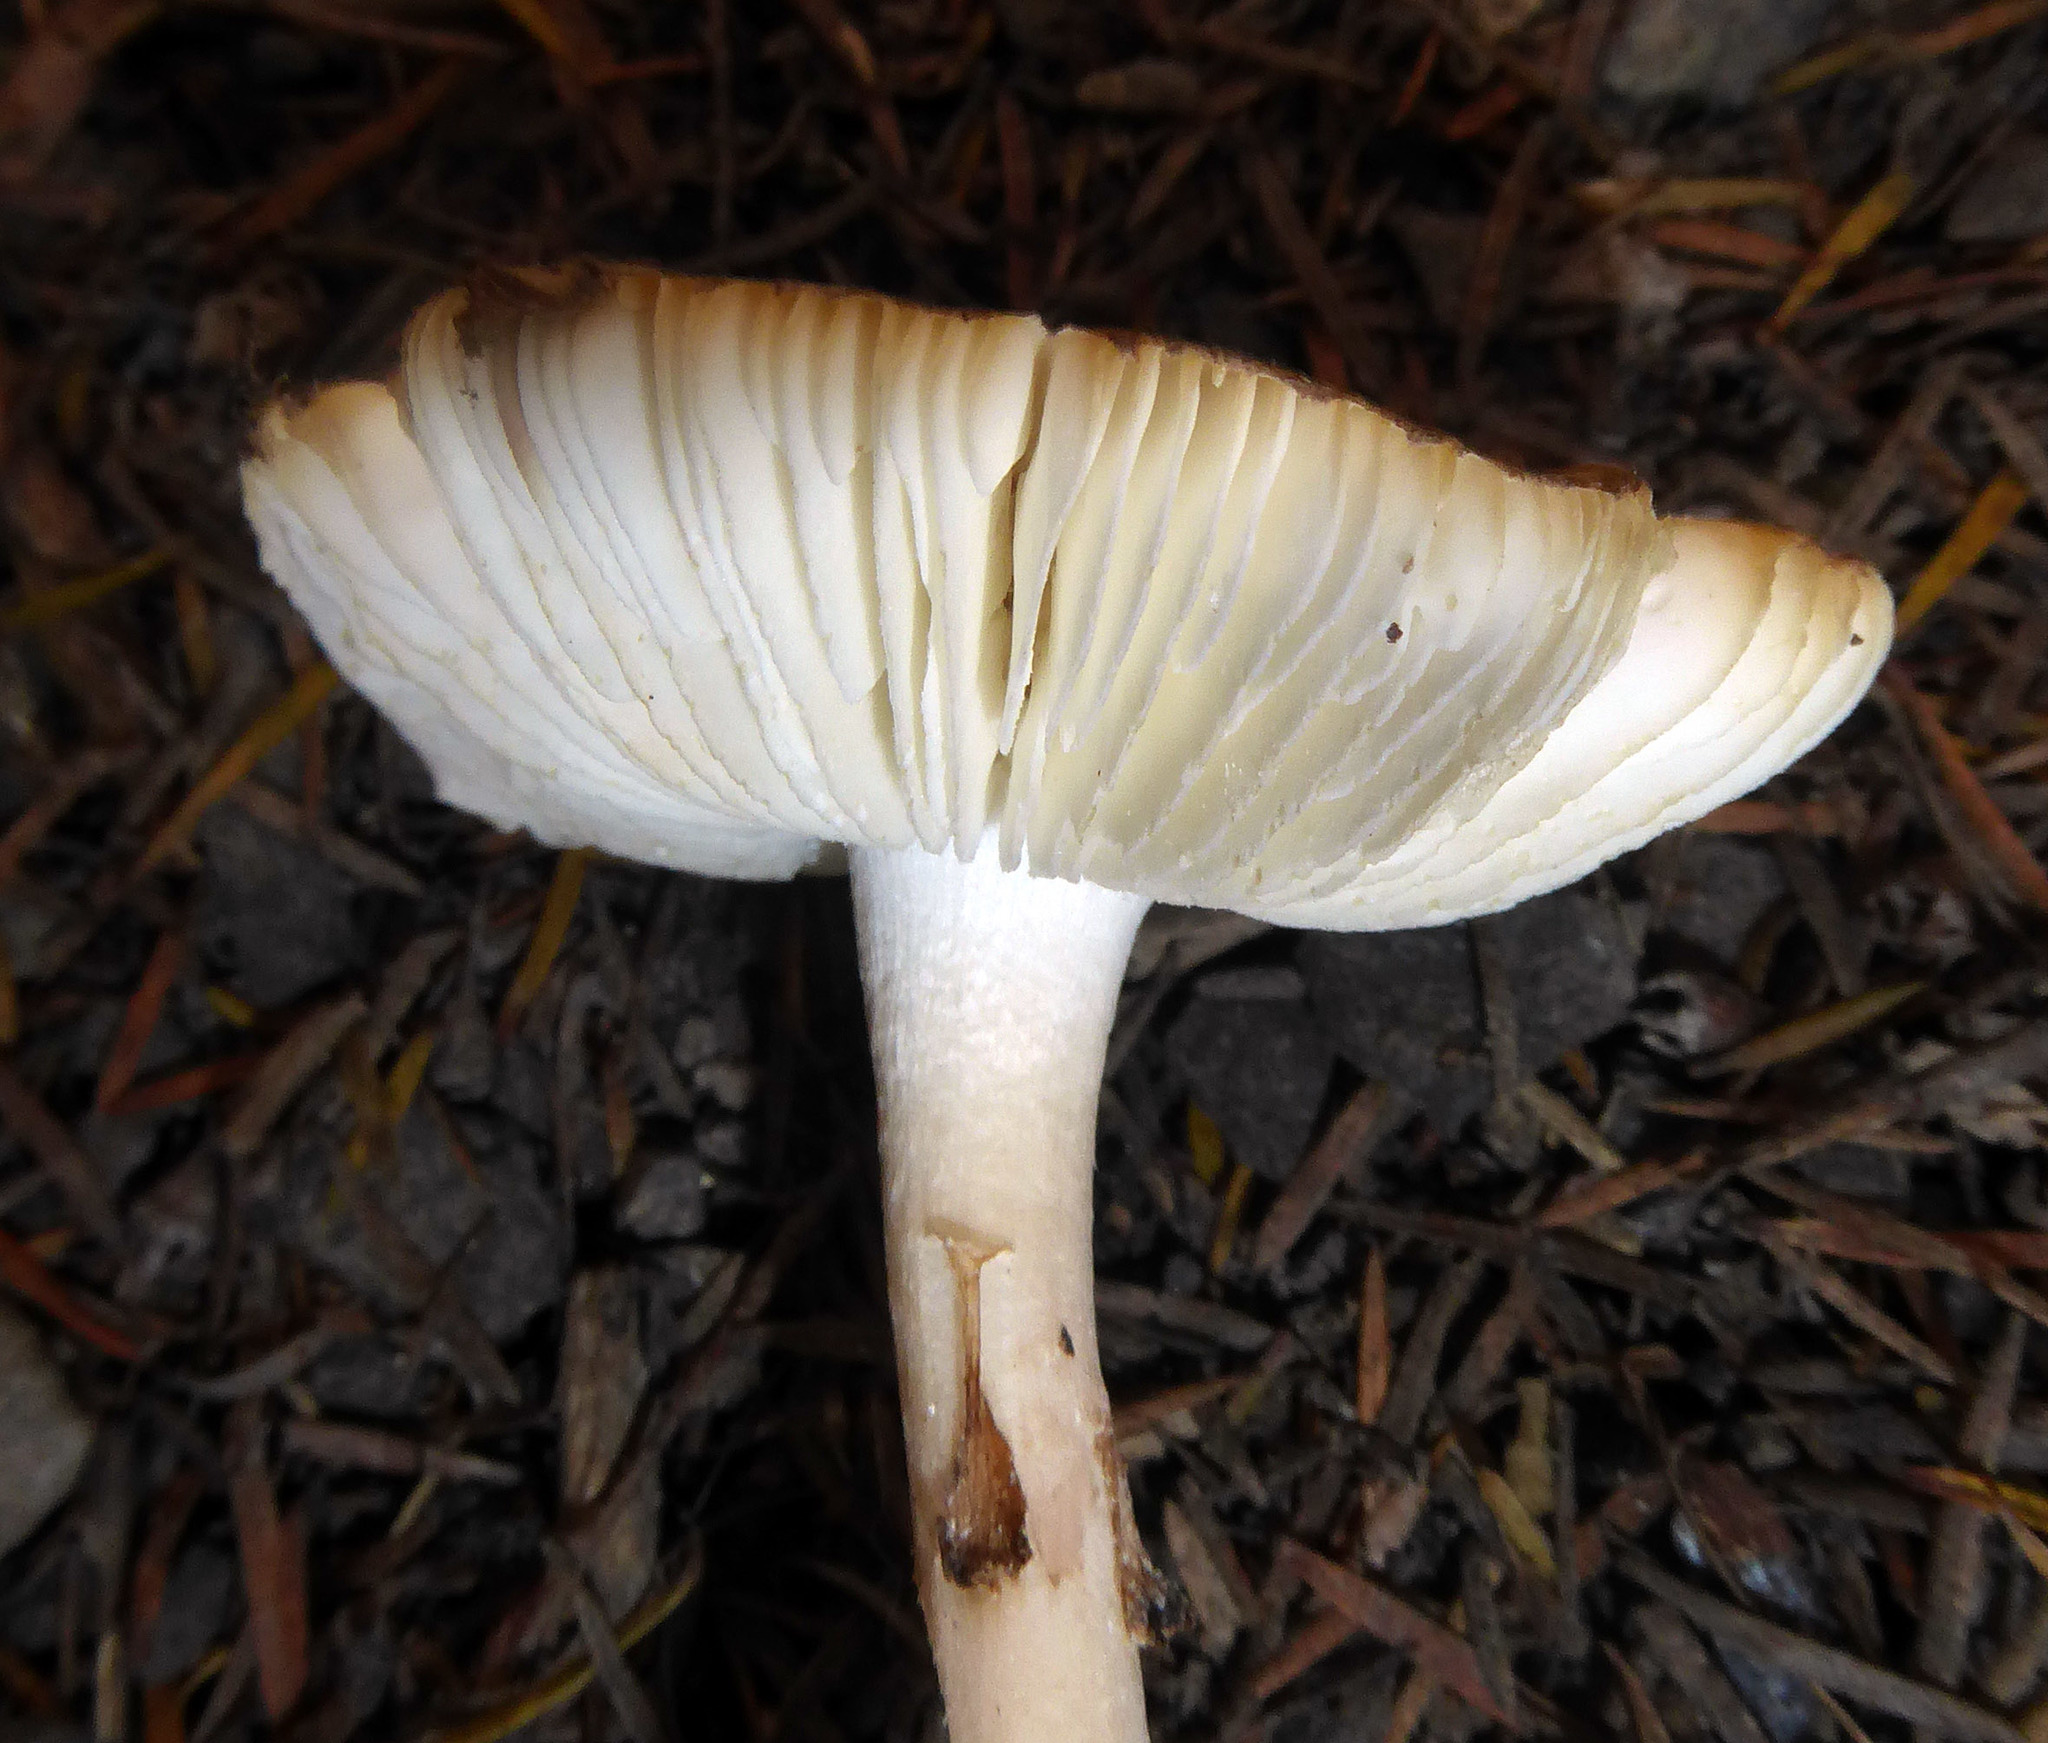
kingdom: Fungi
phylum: Basidiomycota
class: Agaricomycetes
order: Agaricales
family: Amanitaceae
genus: Amanita
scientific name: Amanita australis
